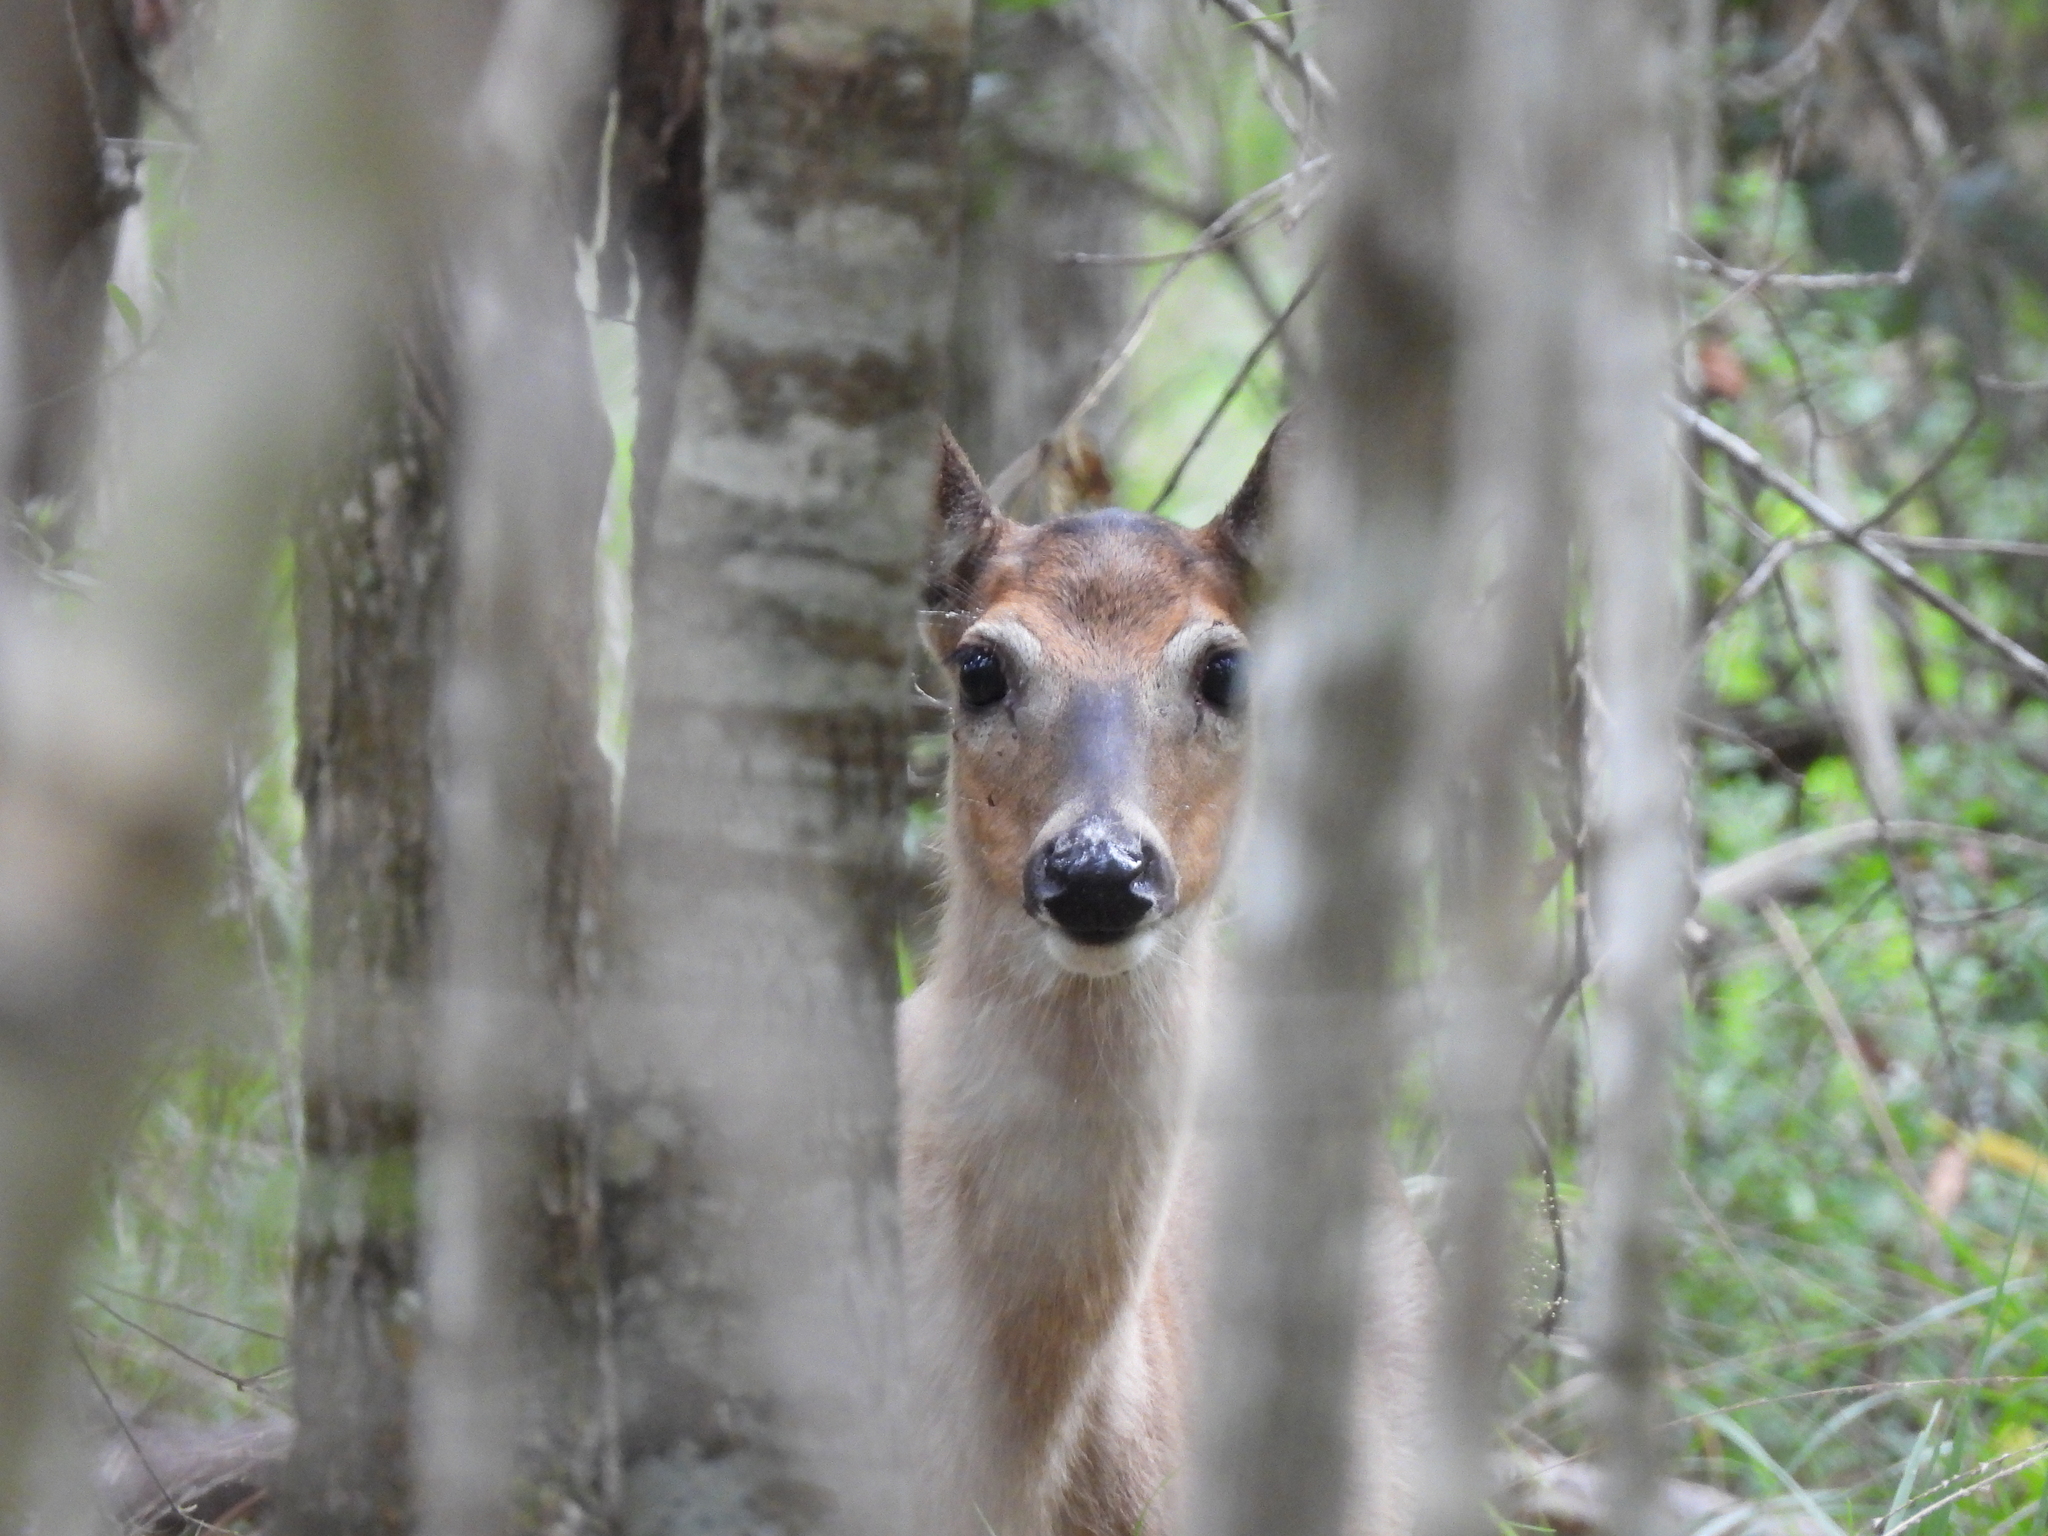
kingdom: Animalia
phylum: Chordata
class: Mammalia
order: Artiodactyla
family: Cervidae
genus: Odocoileus
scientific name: Odocoileus virginianus
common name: White-tailed deer
